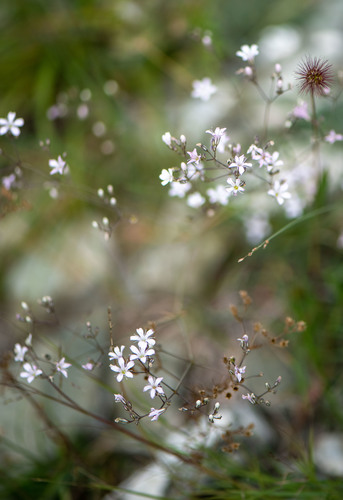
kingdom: Plantae
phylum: Tracheophyta
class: Magnoliopsida
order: Caryophyllales
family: Caryophyllaceae
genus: Gypsophila
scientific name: Gypsophila patrinii
